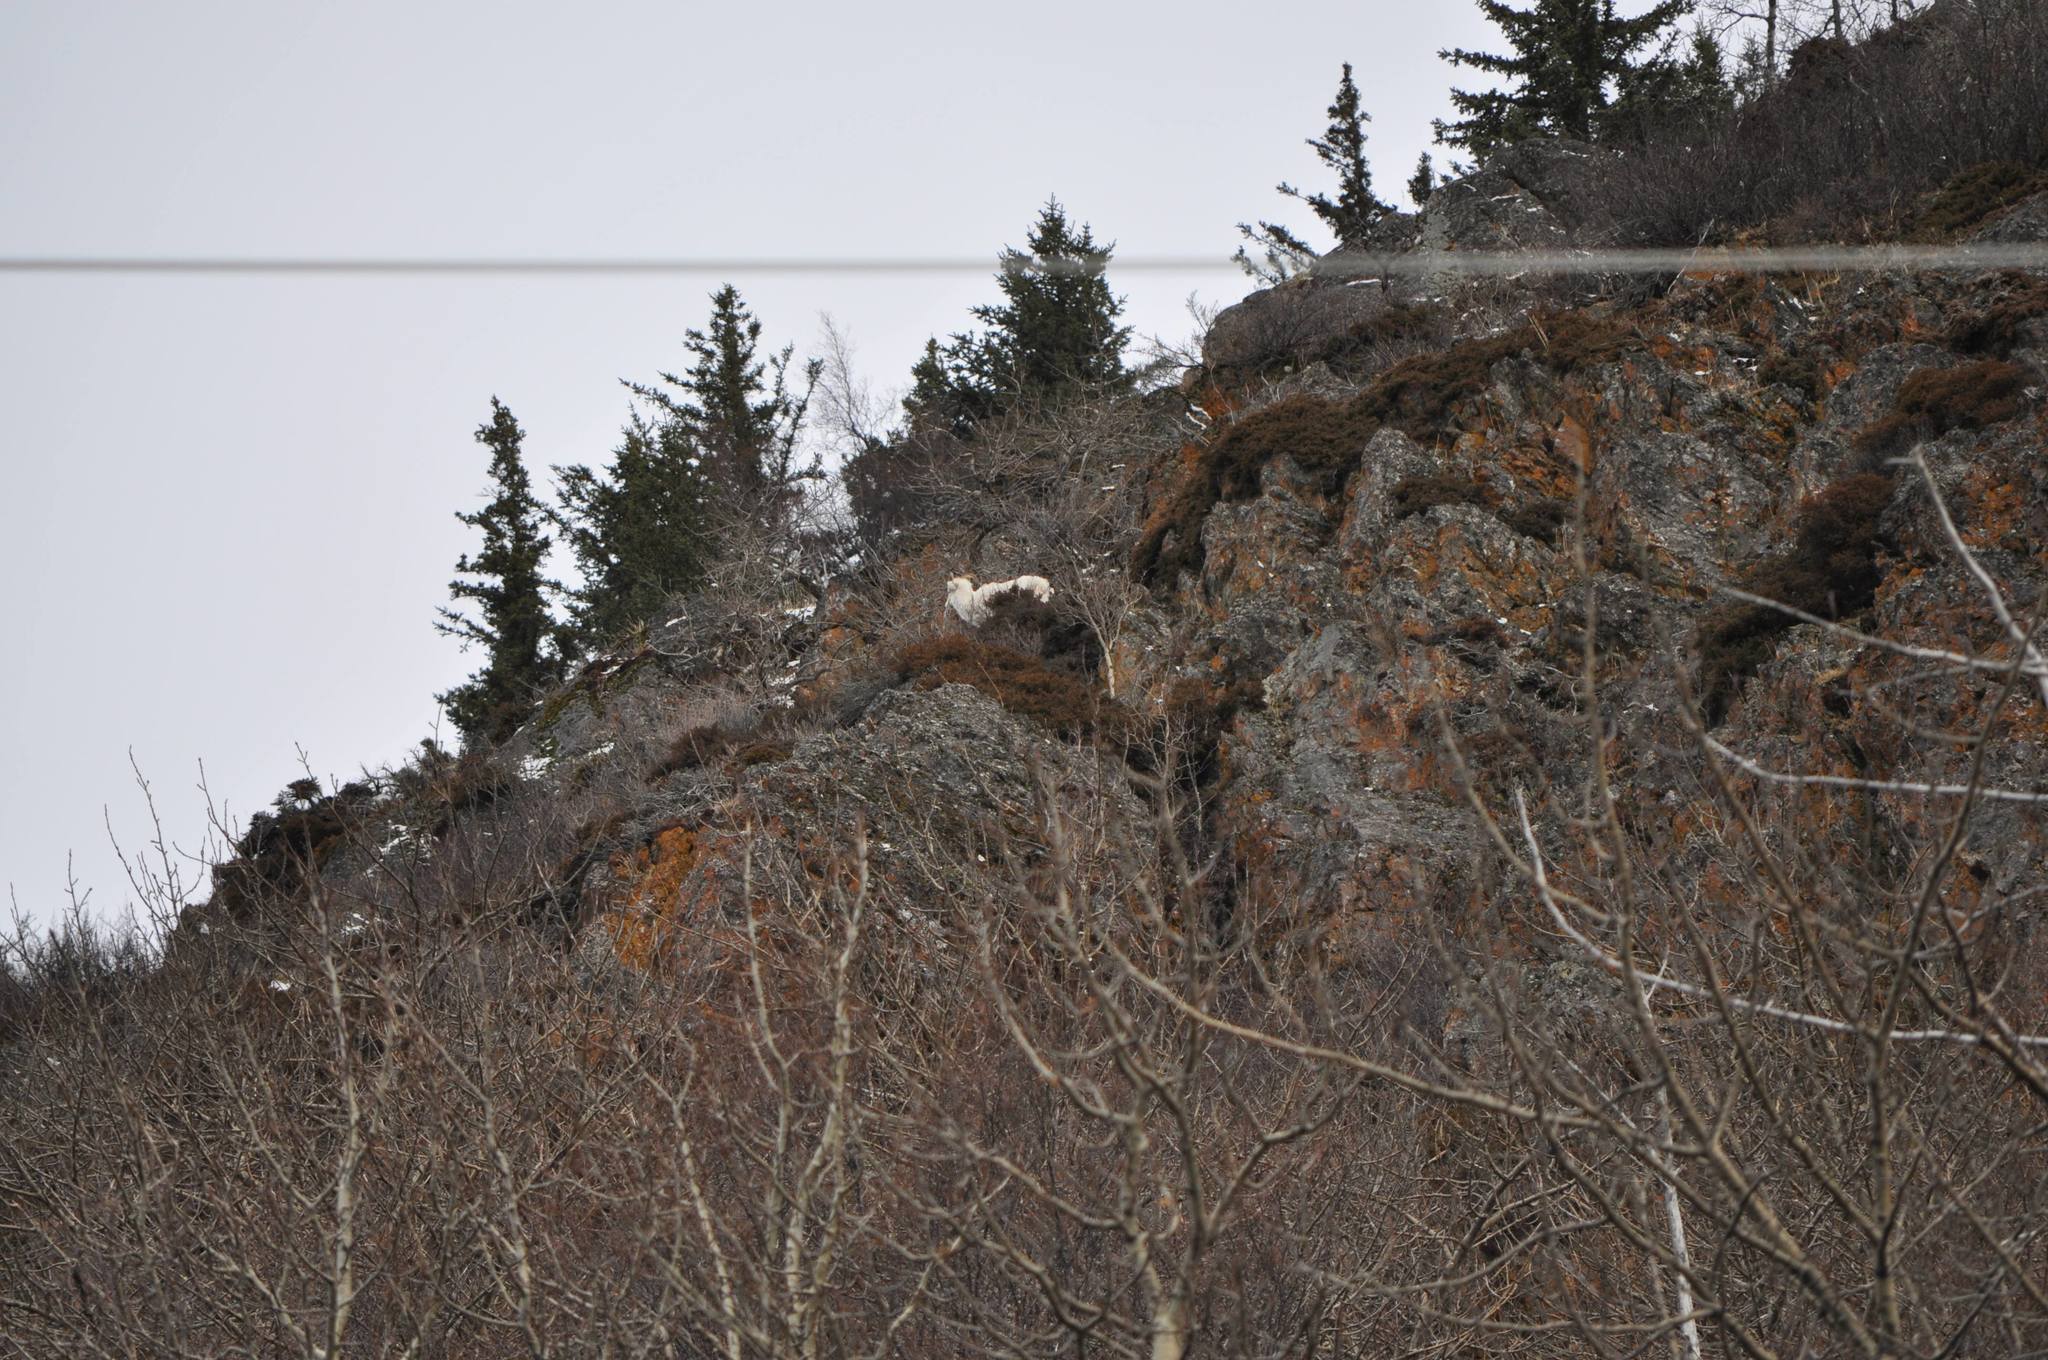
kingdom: Animalia
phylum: Chordata
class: Mammalia
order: Artiodactyla
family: Bovidae
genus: Ovis
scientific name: Ovis dalli
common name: Dall's sheep
